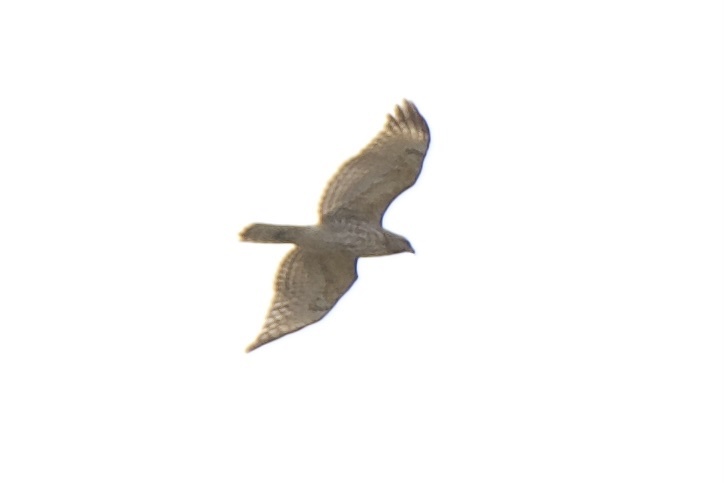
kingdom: Animalia
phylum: Chordata
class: Aves
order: Accipitriformes
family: Accipitridae
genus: Buteo
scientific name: Buteo lineatus
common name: Red-shouldered hawk
